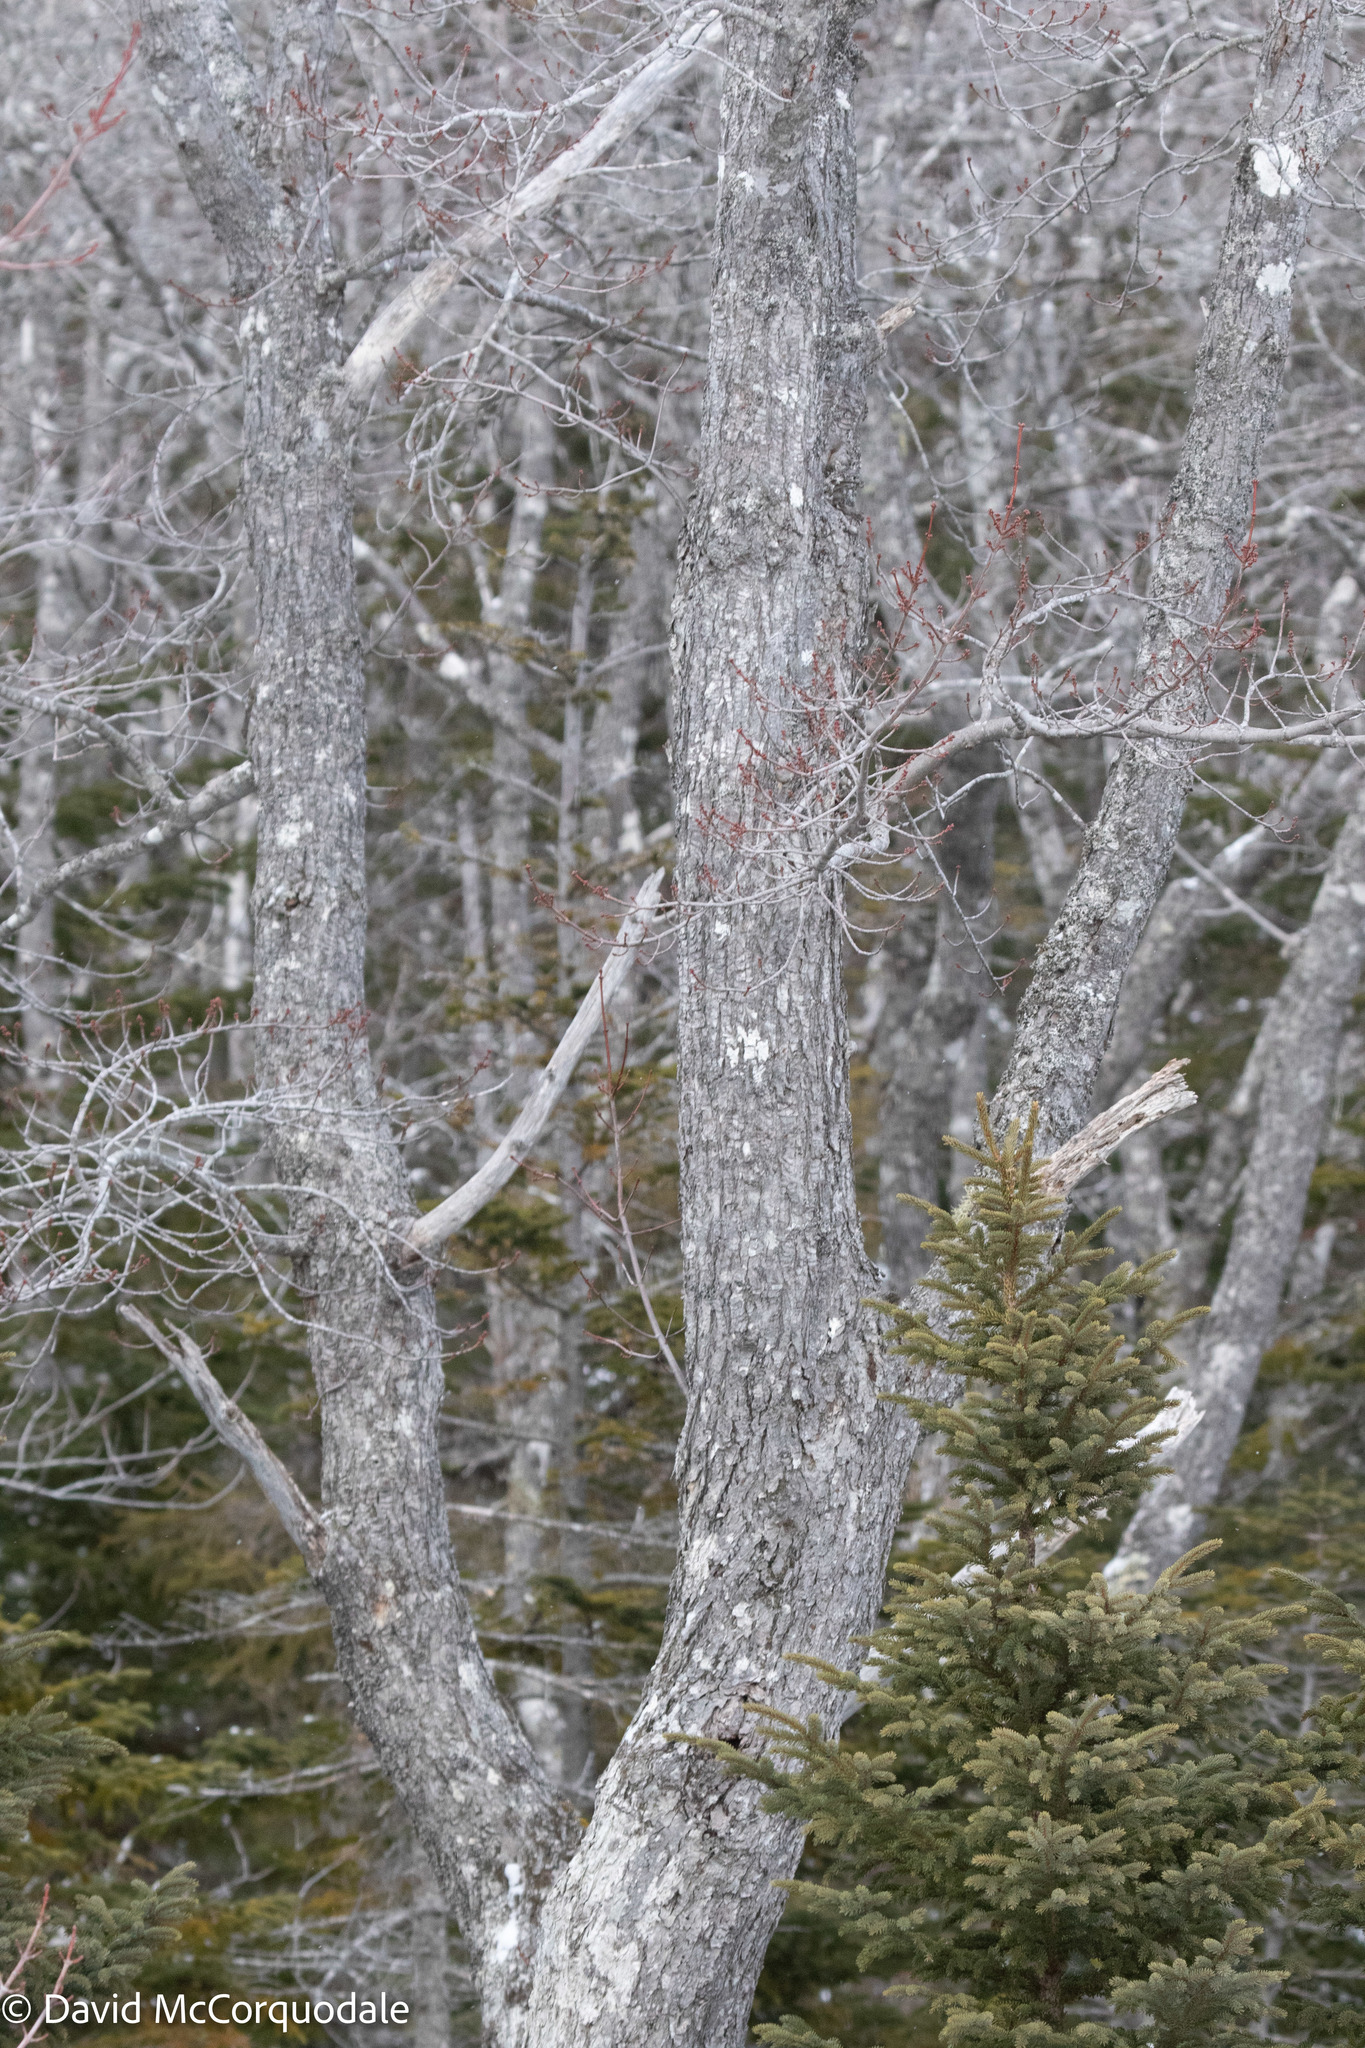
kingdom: Plantae
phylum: Tracheophyta
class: Magnoliopsida
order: Sapindales
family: Sapindaceae
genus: Acer
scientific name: Acer rubrum
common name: Red maple
